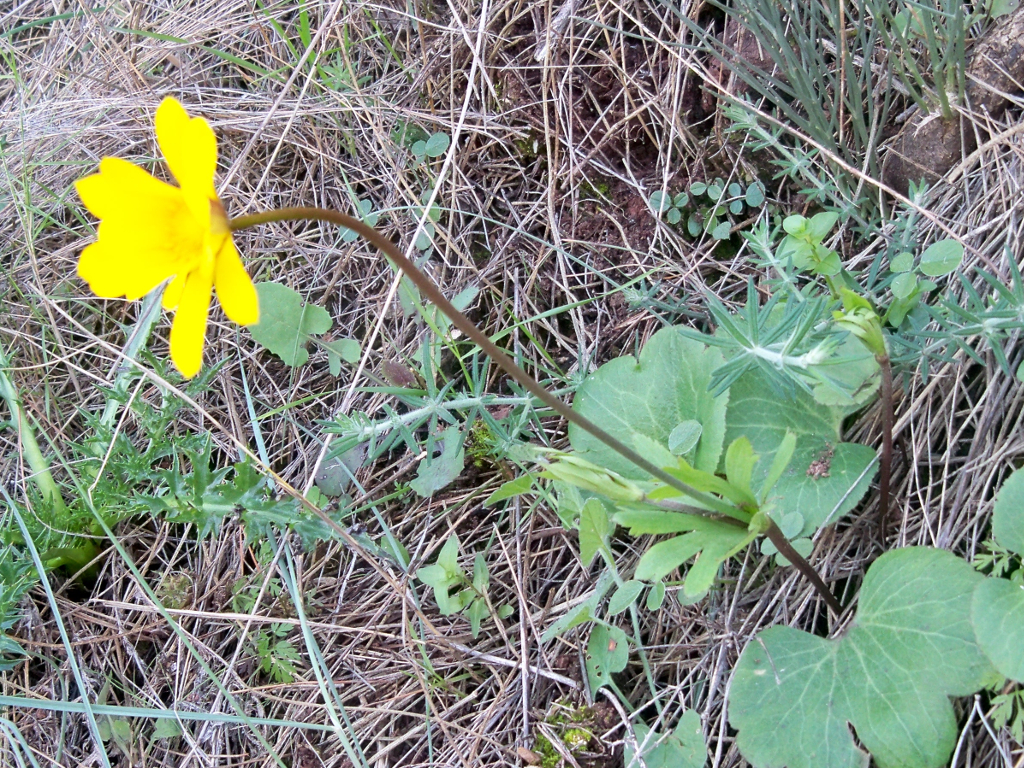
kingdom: Plantae
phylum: Tracheophyta
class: Magnoliopsida
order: Ranunculales
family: Ranunculaceae
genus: Anemone
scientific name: Anemone palmata
